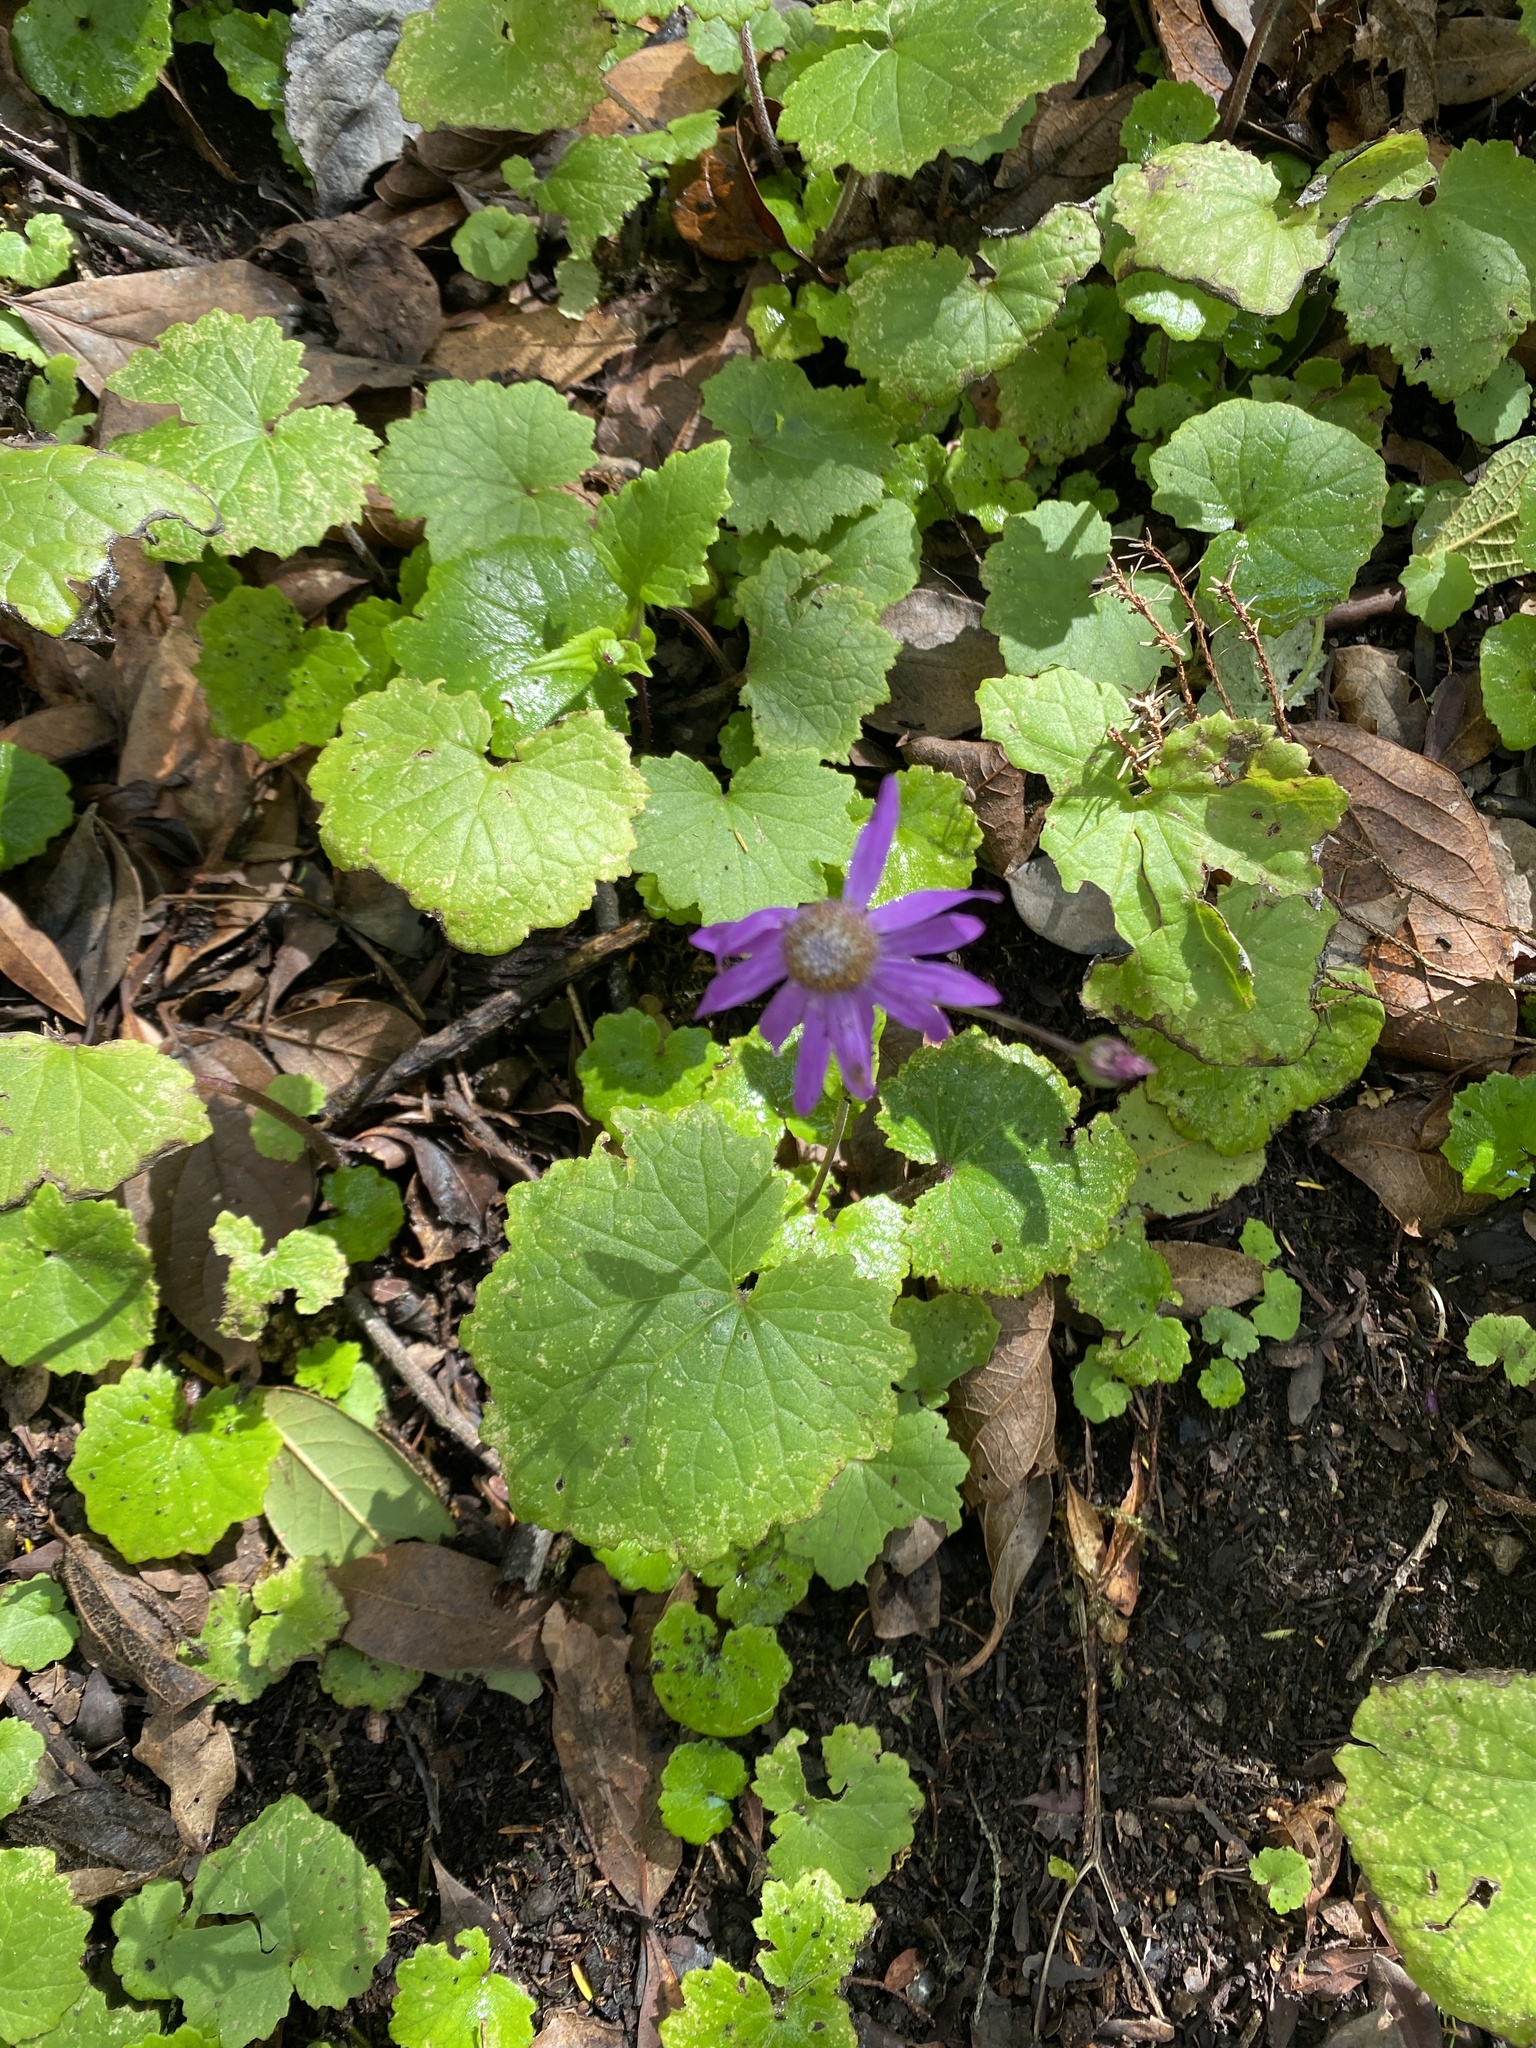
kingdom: Plantae
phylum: Tracheophyta
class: Magnoliopsida
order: Asterales
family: Asteraceae
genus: Pericallis
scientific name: Pericallis tussilaginis
